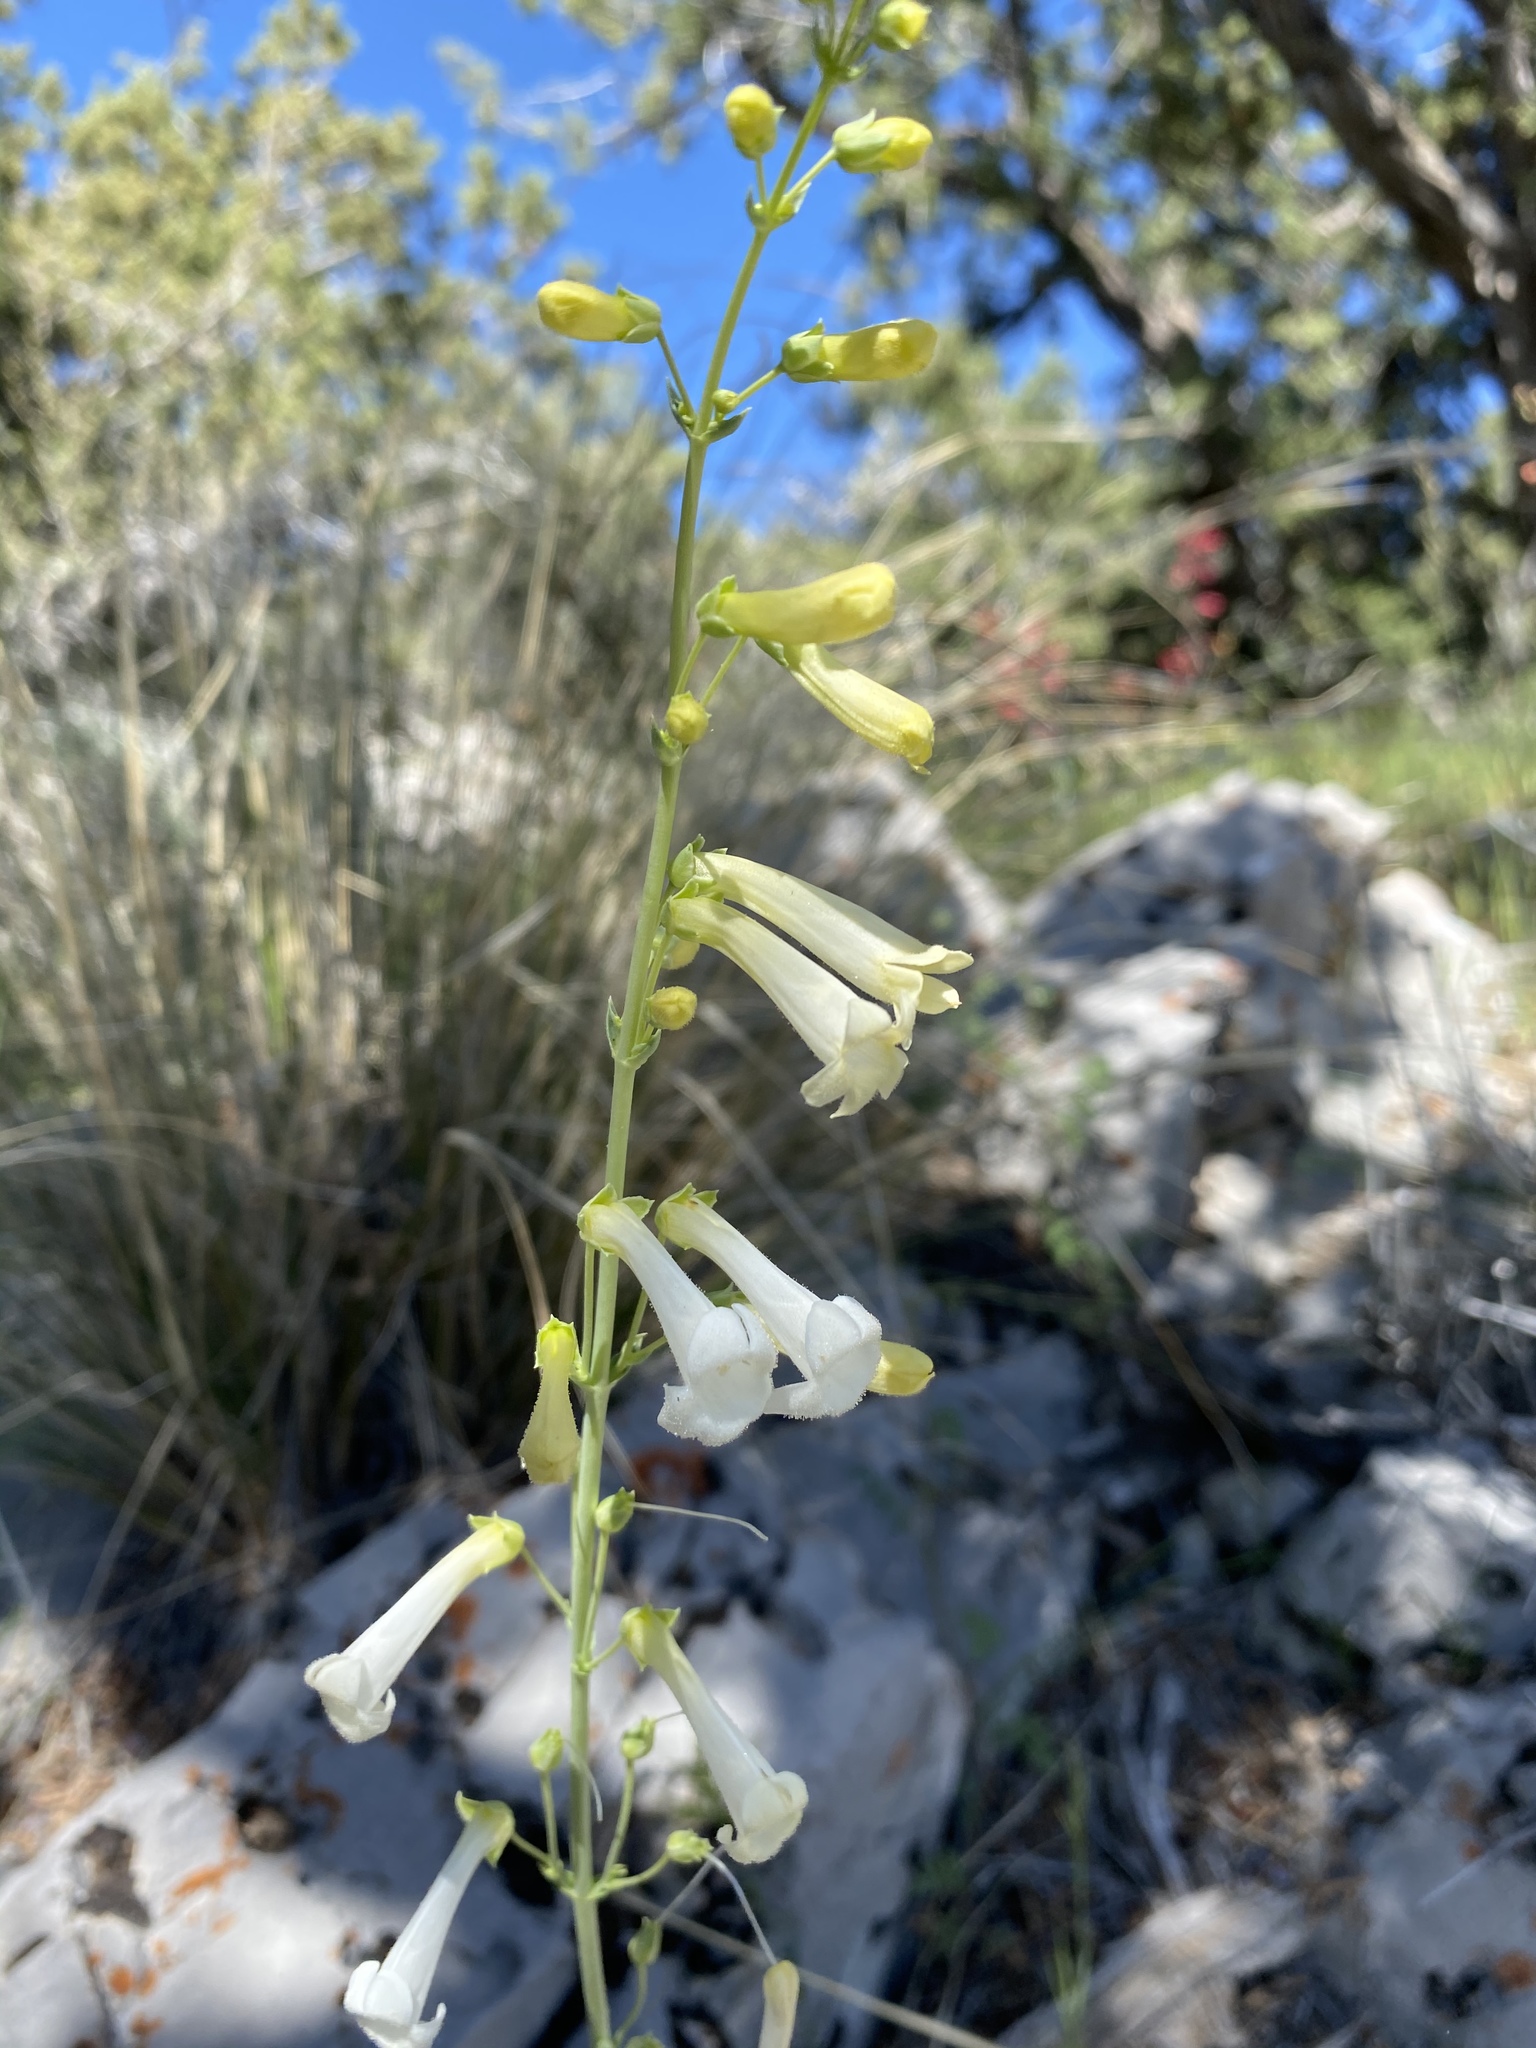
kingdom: Plantae
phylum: Tracheophyta
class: Magnoliopsida
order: Lamiales
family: Plantaginaceae
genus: Penstemon
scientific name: Penstemon utahensis
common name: Utah penstemon
